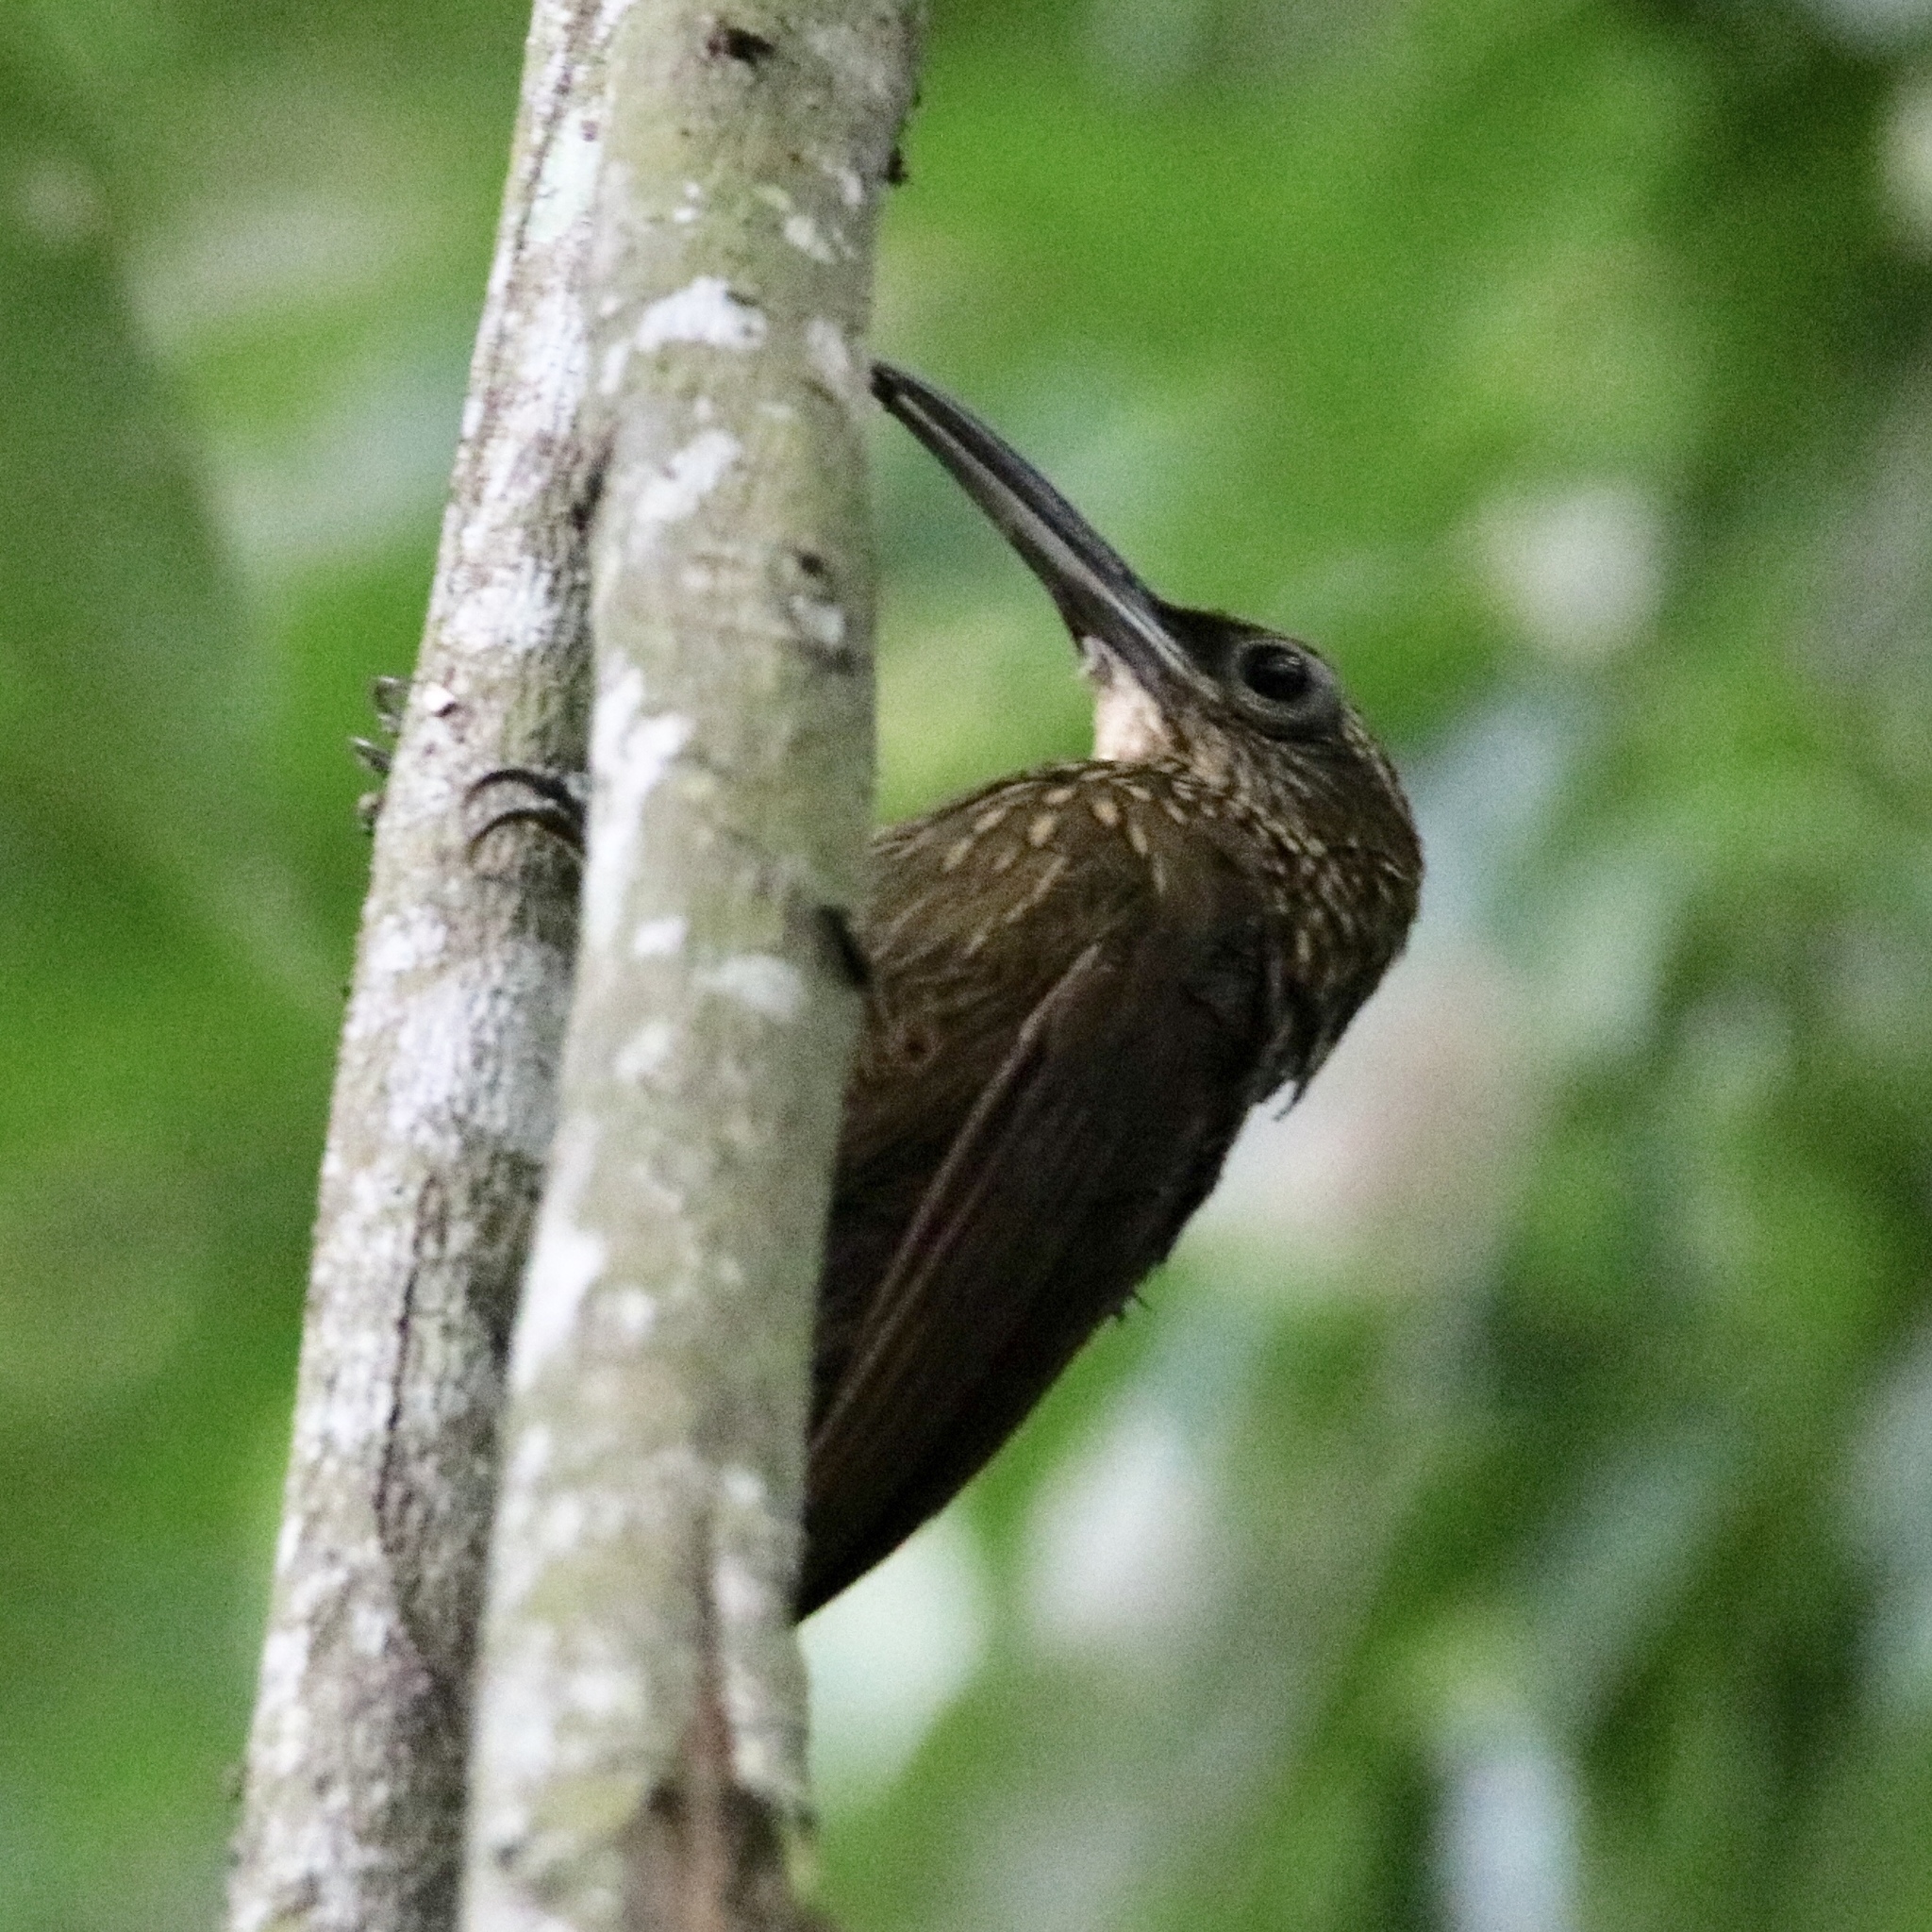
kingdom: Animalia
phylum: Chordata
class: Aves
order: Passeriformes
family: Furnariidae
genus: Xiphorhynchus
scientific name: Xiphorhynchus susurrans
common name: Cocoa woodcreeper
